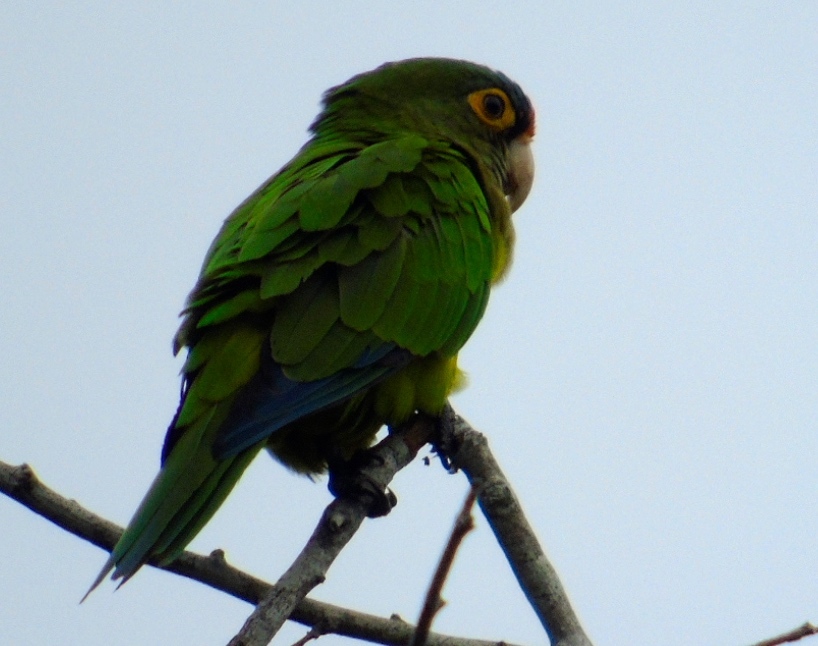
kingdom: Animalia
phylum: Chordata
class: Aves
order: Psittaciformes
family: Psittacidae
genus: Aratinga
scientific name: Aratinga canicularis
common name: Orange-fronted parakeet
